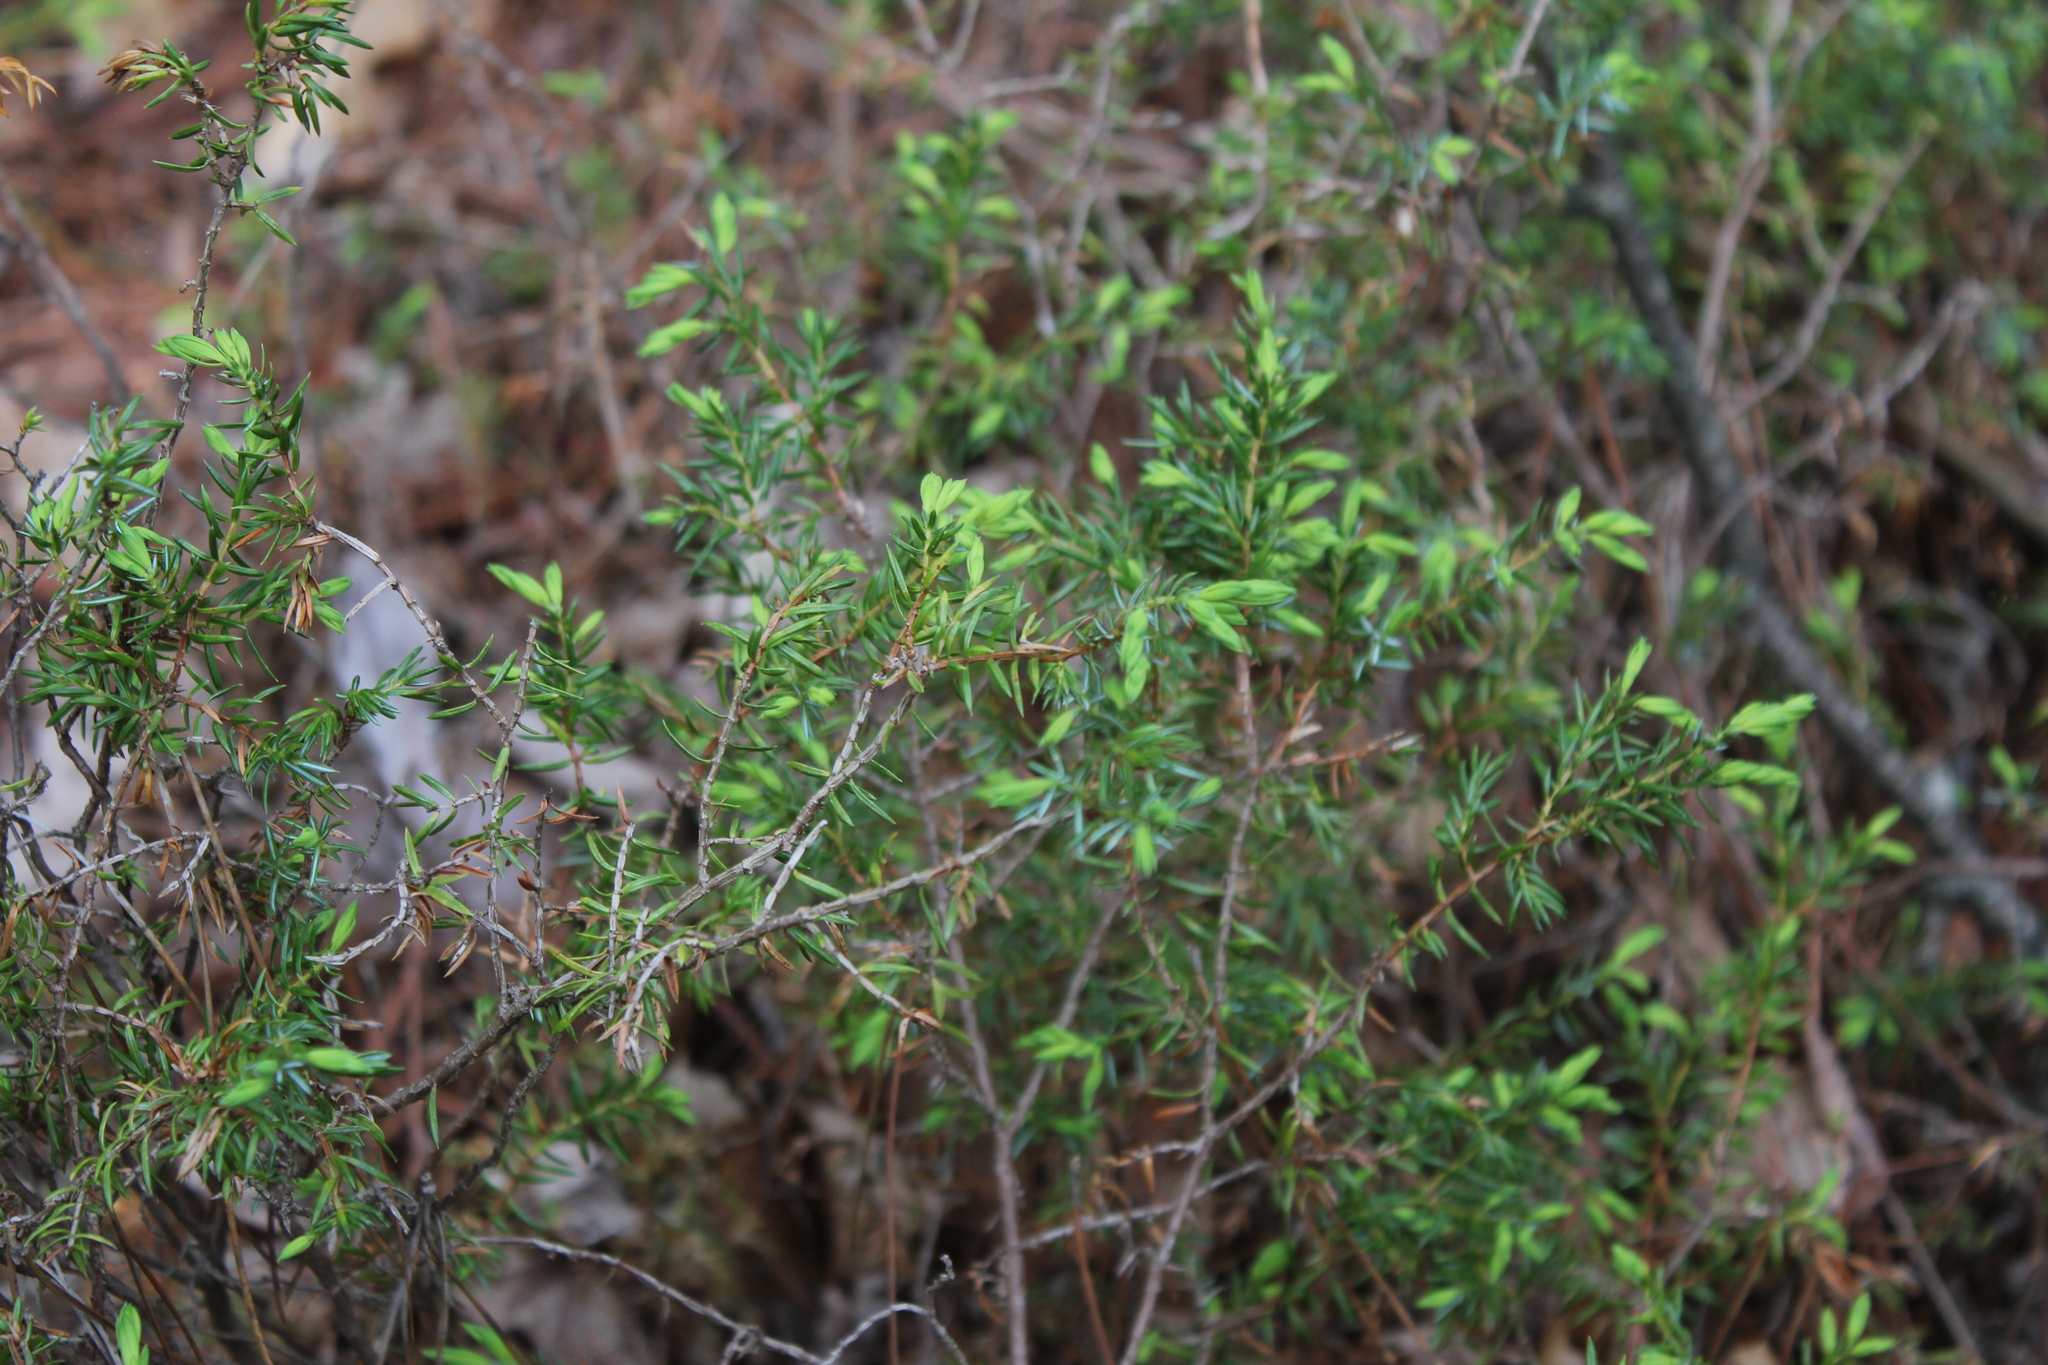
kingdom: Plantae
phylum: Tracheophyta
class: Pinopsida
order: Pinales
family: Cupressaceae
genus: Juniperus
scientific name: Juniperus communis
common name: Common juniper
